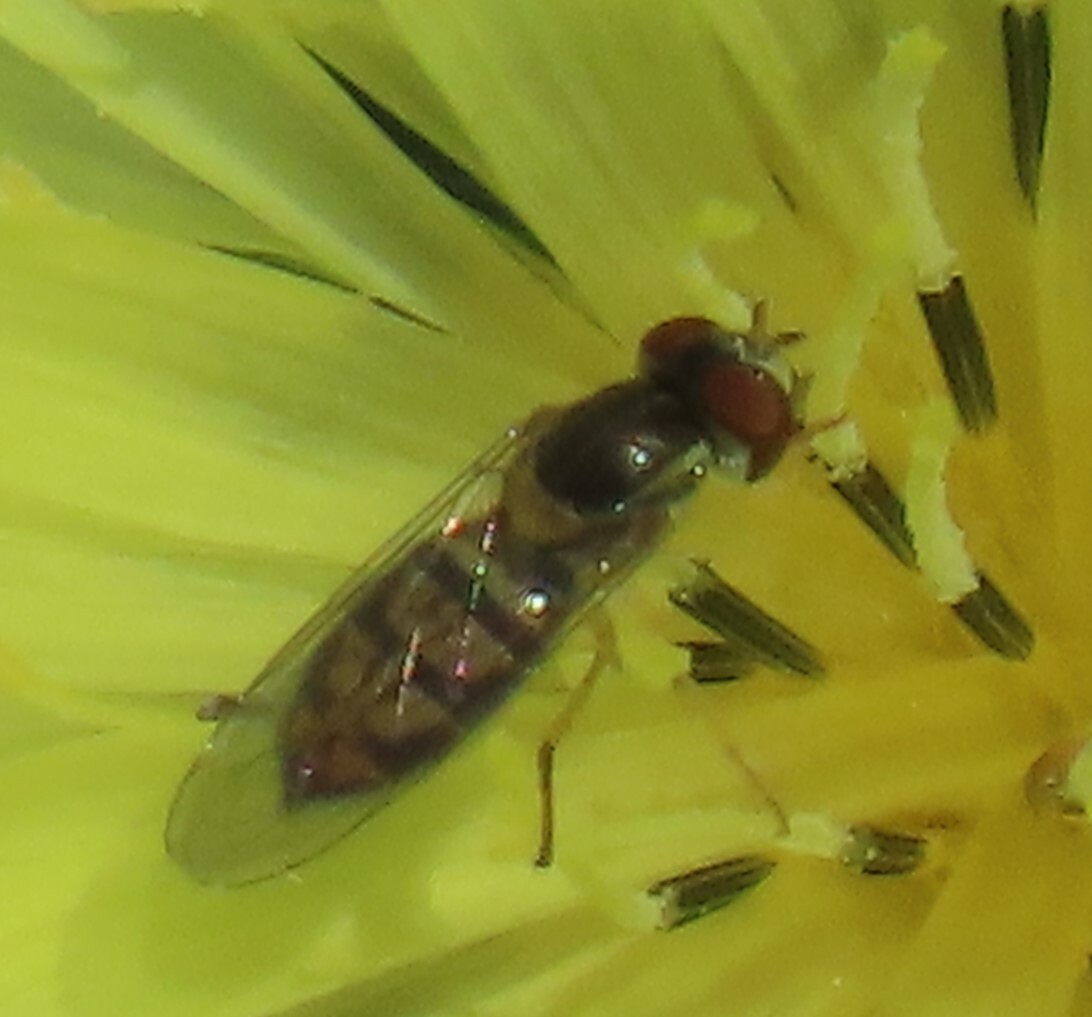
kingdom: Animalia
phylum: Arthropoda
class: Insecta
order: Diptera
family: Syrphidae
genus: Toxomerus
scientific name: Toxomerus marginatus
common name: Syrphid fly
